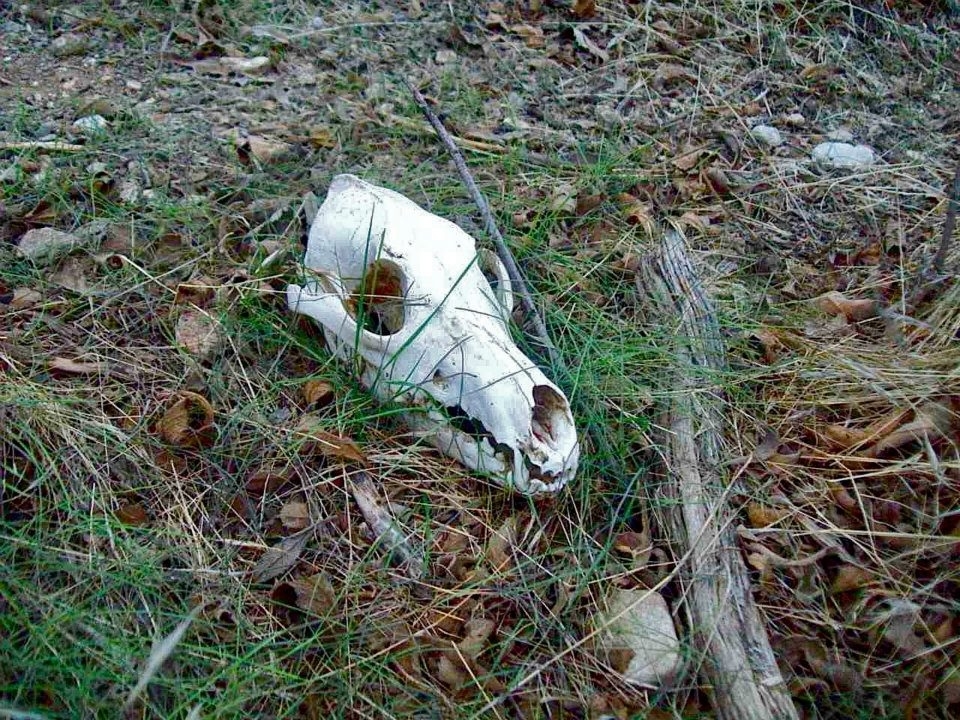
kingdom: Animalia
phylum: Chordata
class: Mammalia
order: Carnivora
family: Canidae
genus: Canis
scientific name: Canis latrans
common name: Coyote
